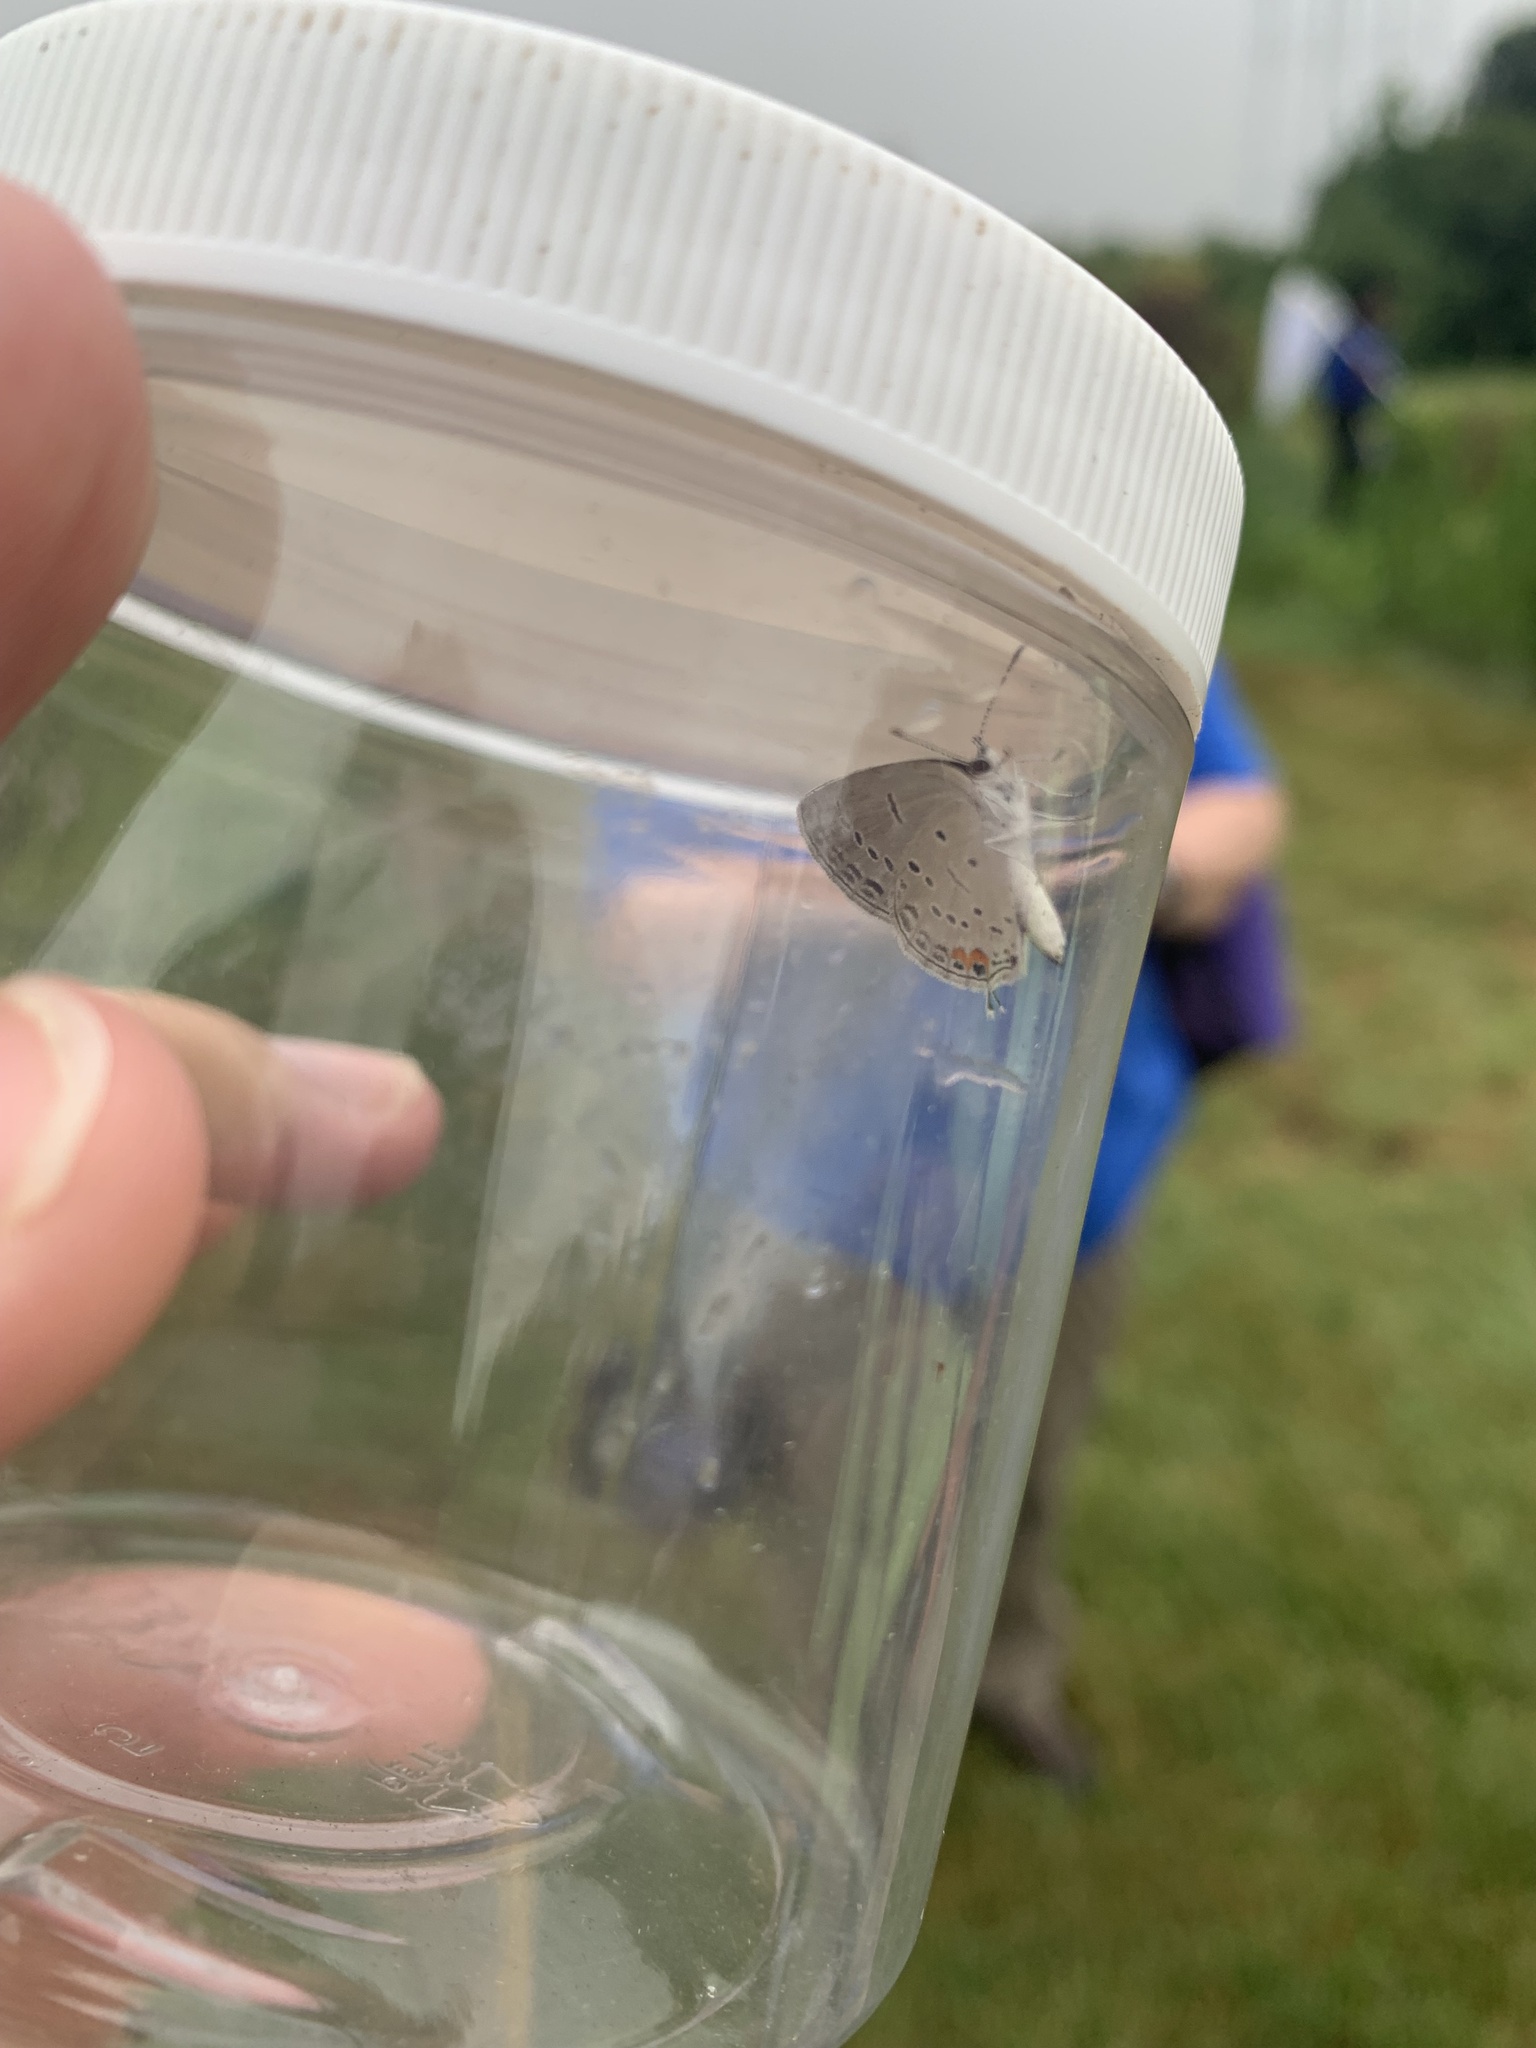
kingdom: Animalia
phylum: Arthropoda
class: Insecta
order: Lepidoptera
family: Lycaenidae
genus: Elkalyce
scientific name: Elkalyce comyntas
